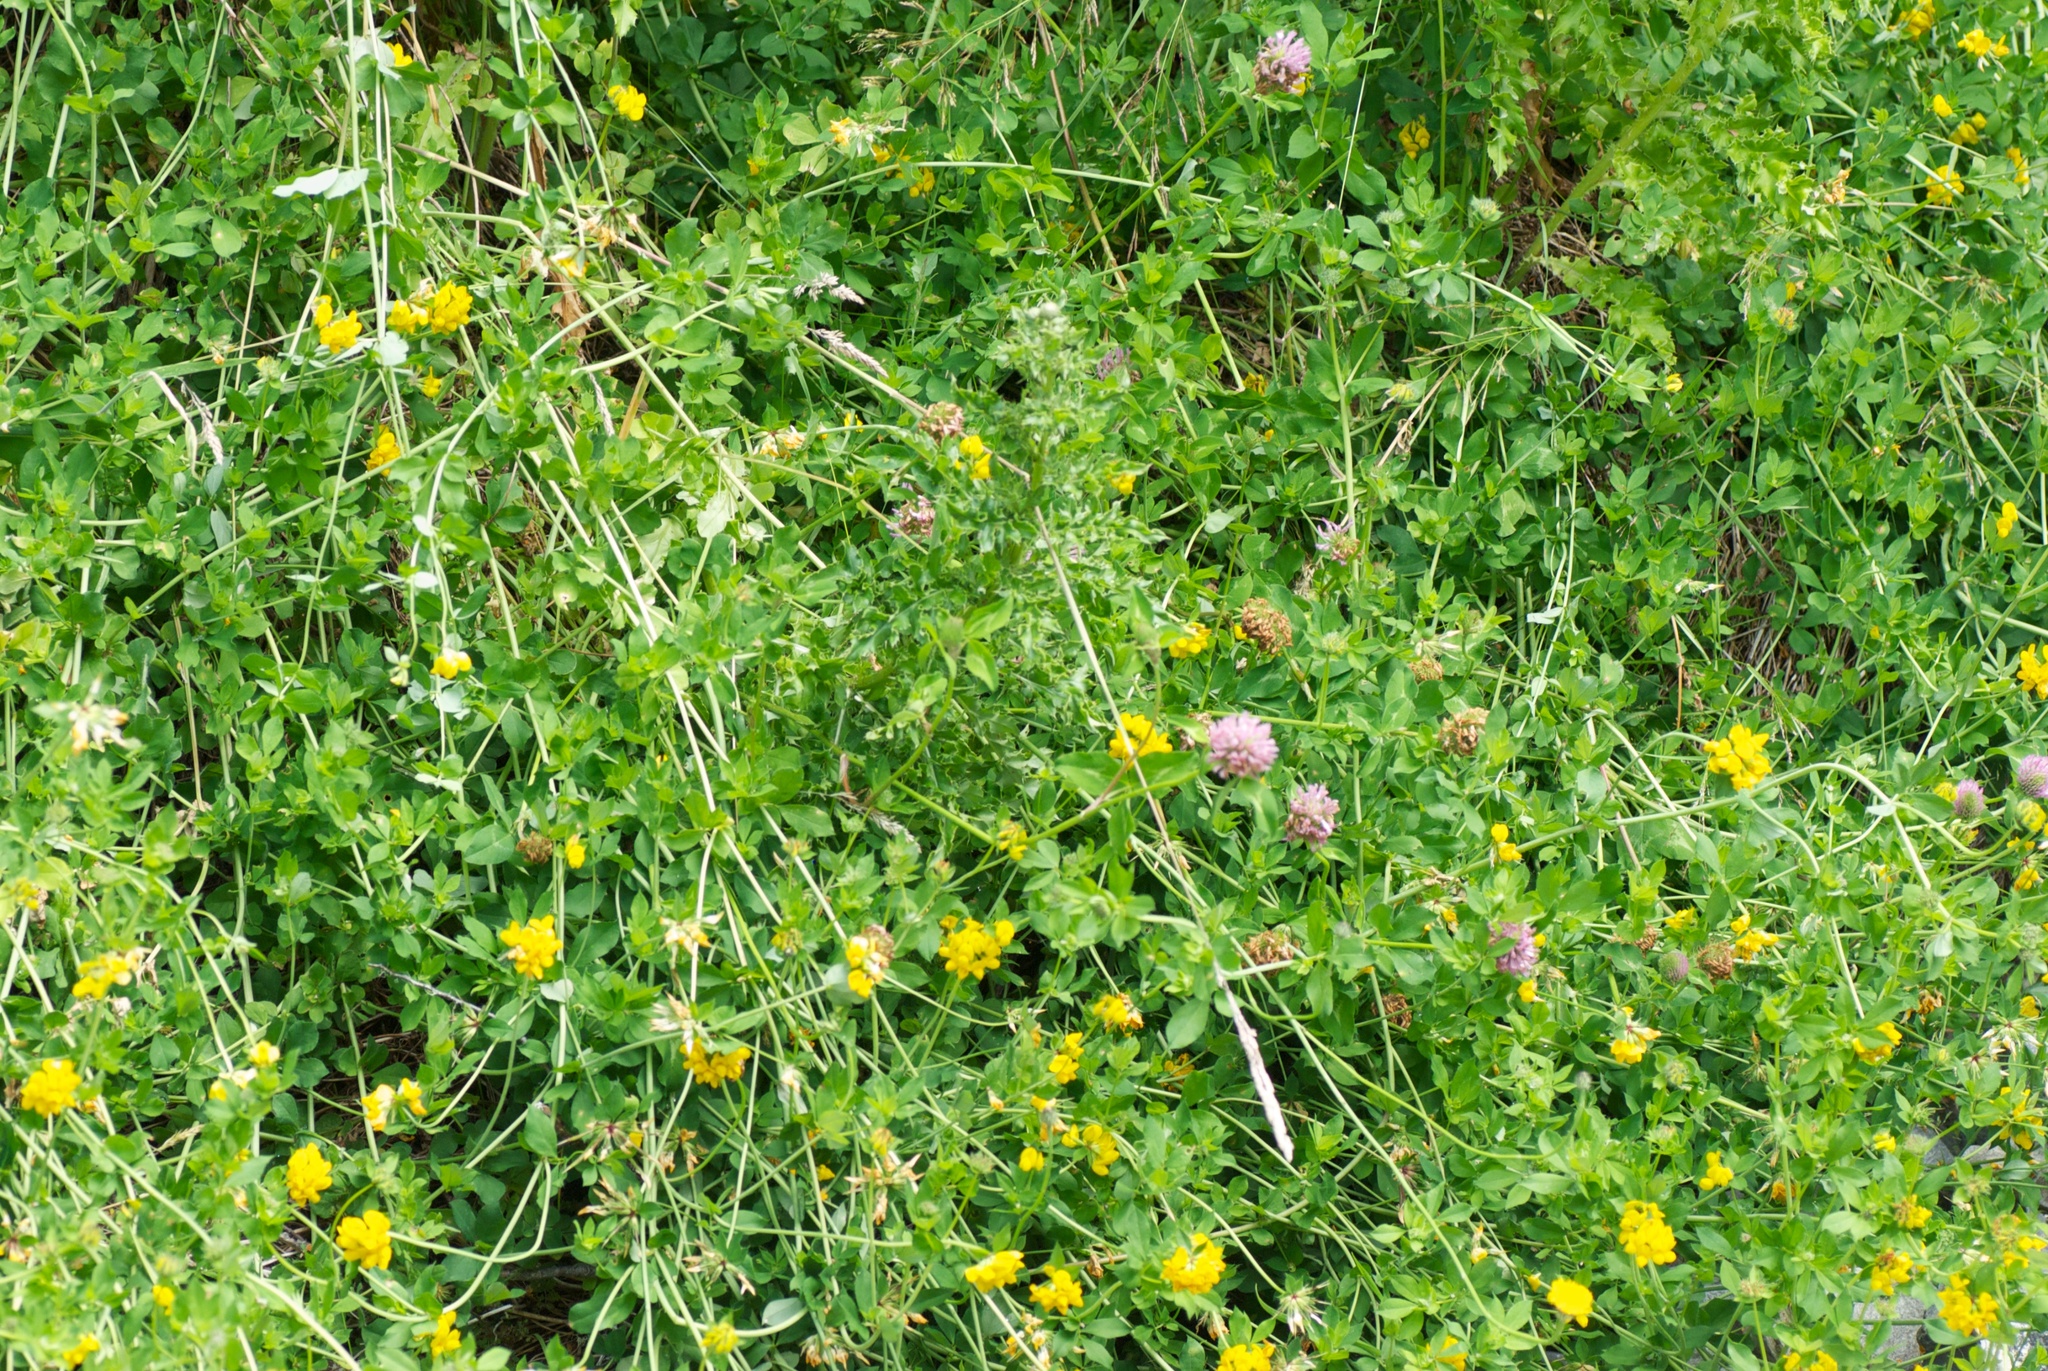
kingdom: Plantae
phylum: Tracheophyta
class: Magnoliopsida
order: Fabales
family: Fabaceae
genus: Trifolium
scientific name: Trifolium pratense
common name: Red clover
